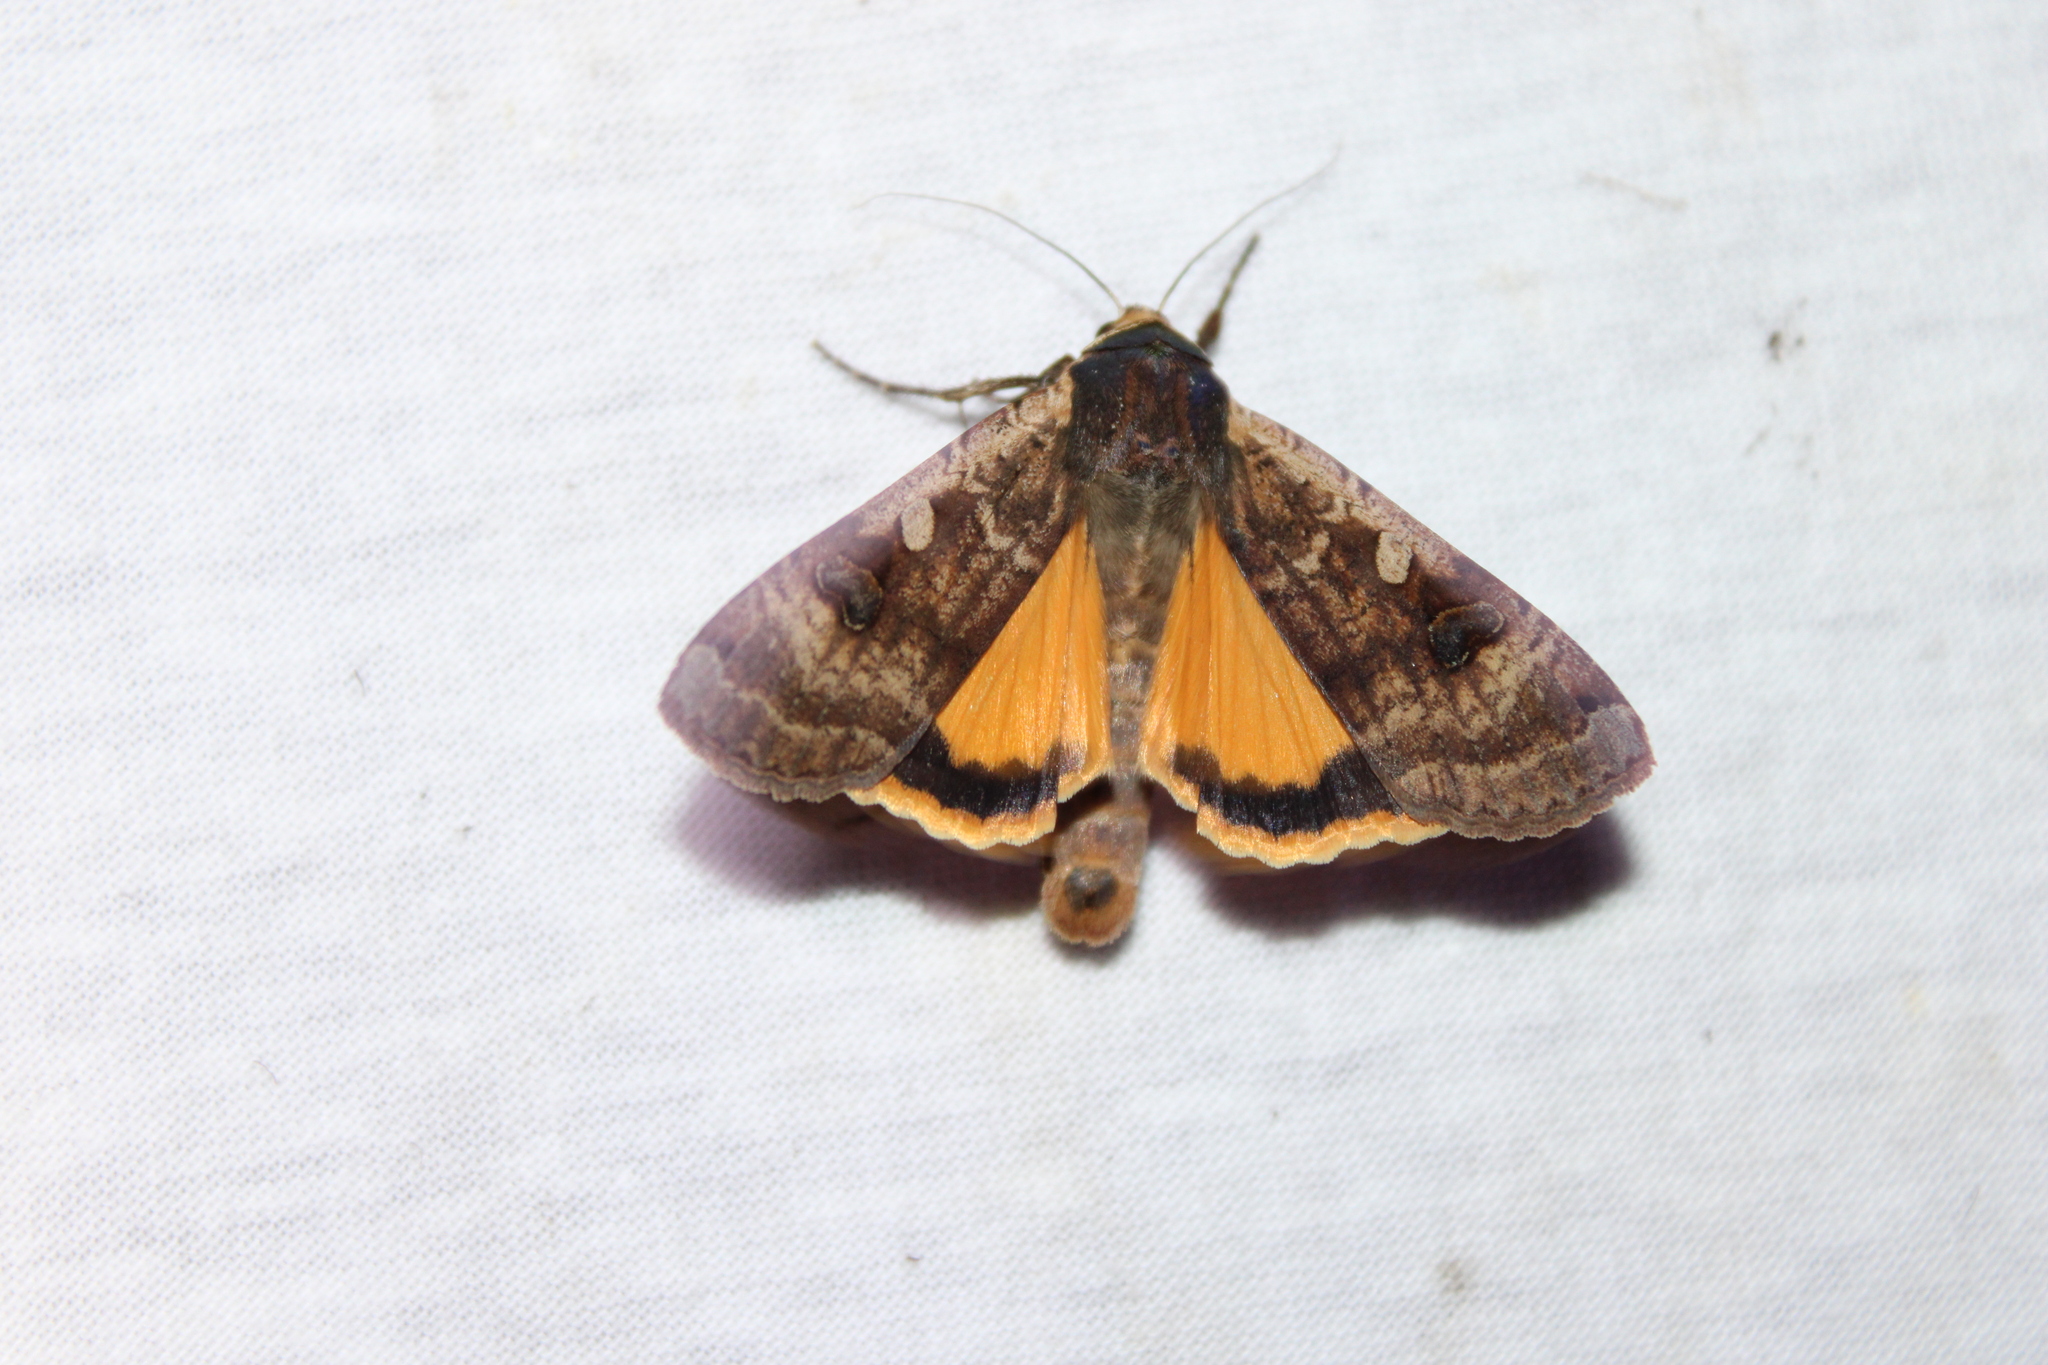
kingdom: Animalia
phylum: Arthropoda
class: Insecta
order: Lepidoptera
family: Noctuidae
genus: Noctua
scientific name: Noctua pronuba
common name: Large yellow underwing
